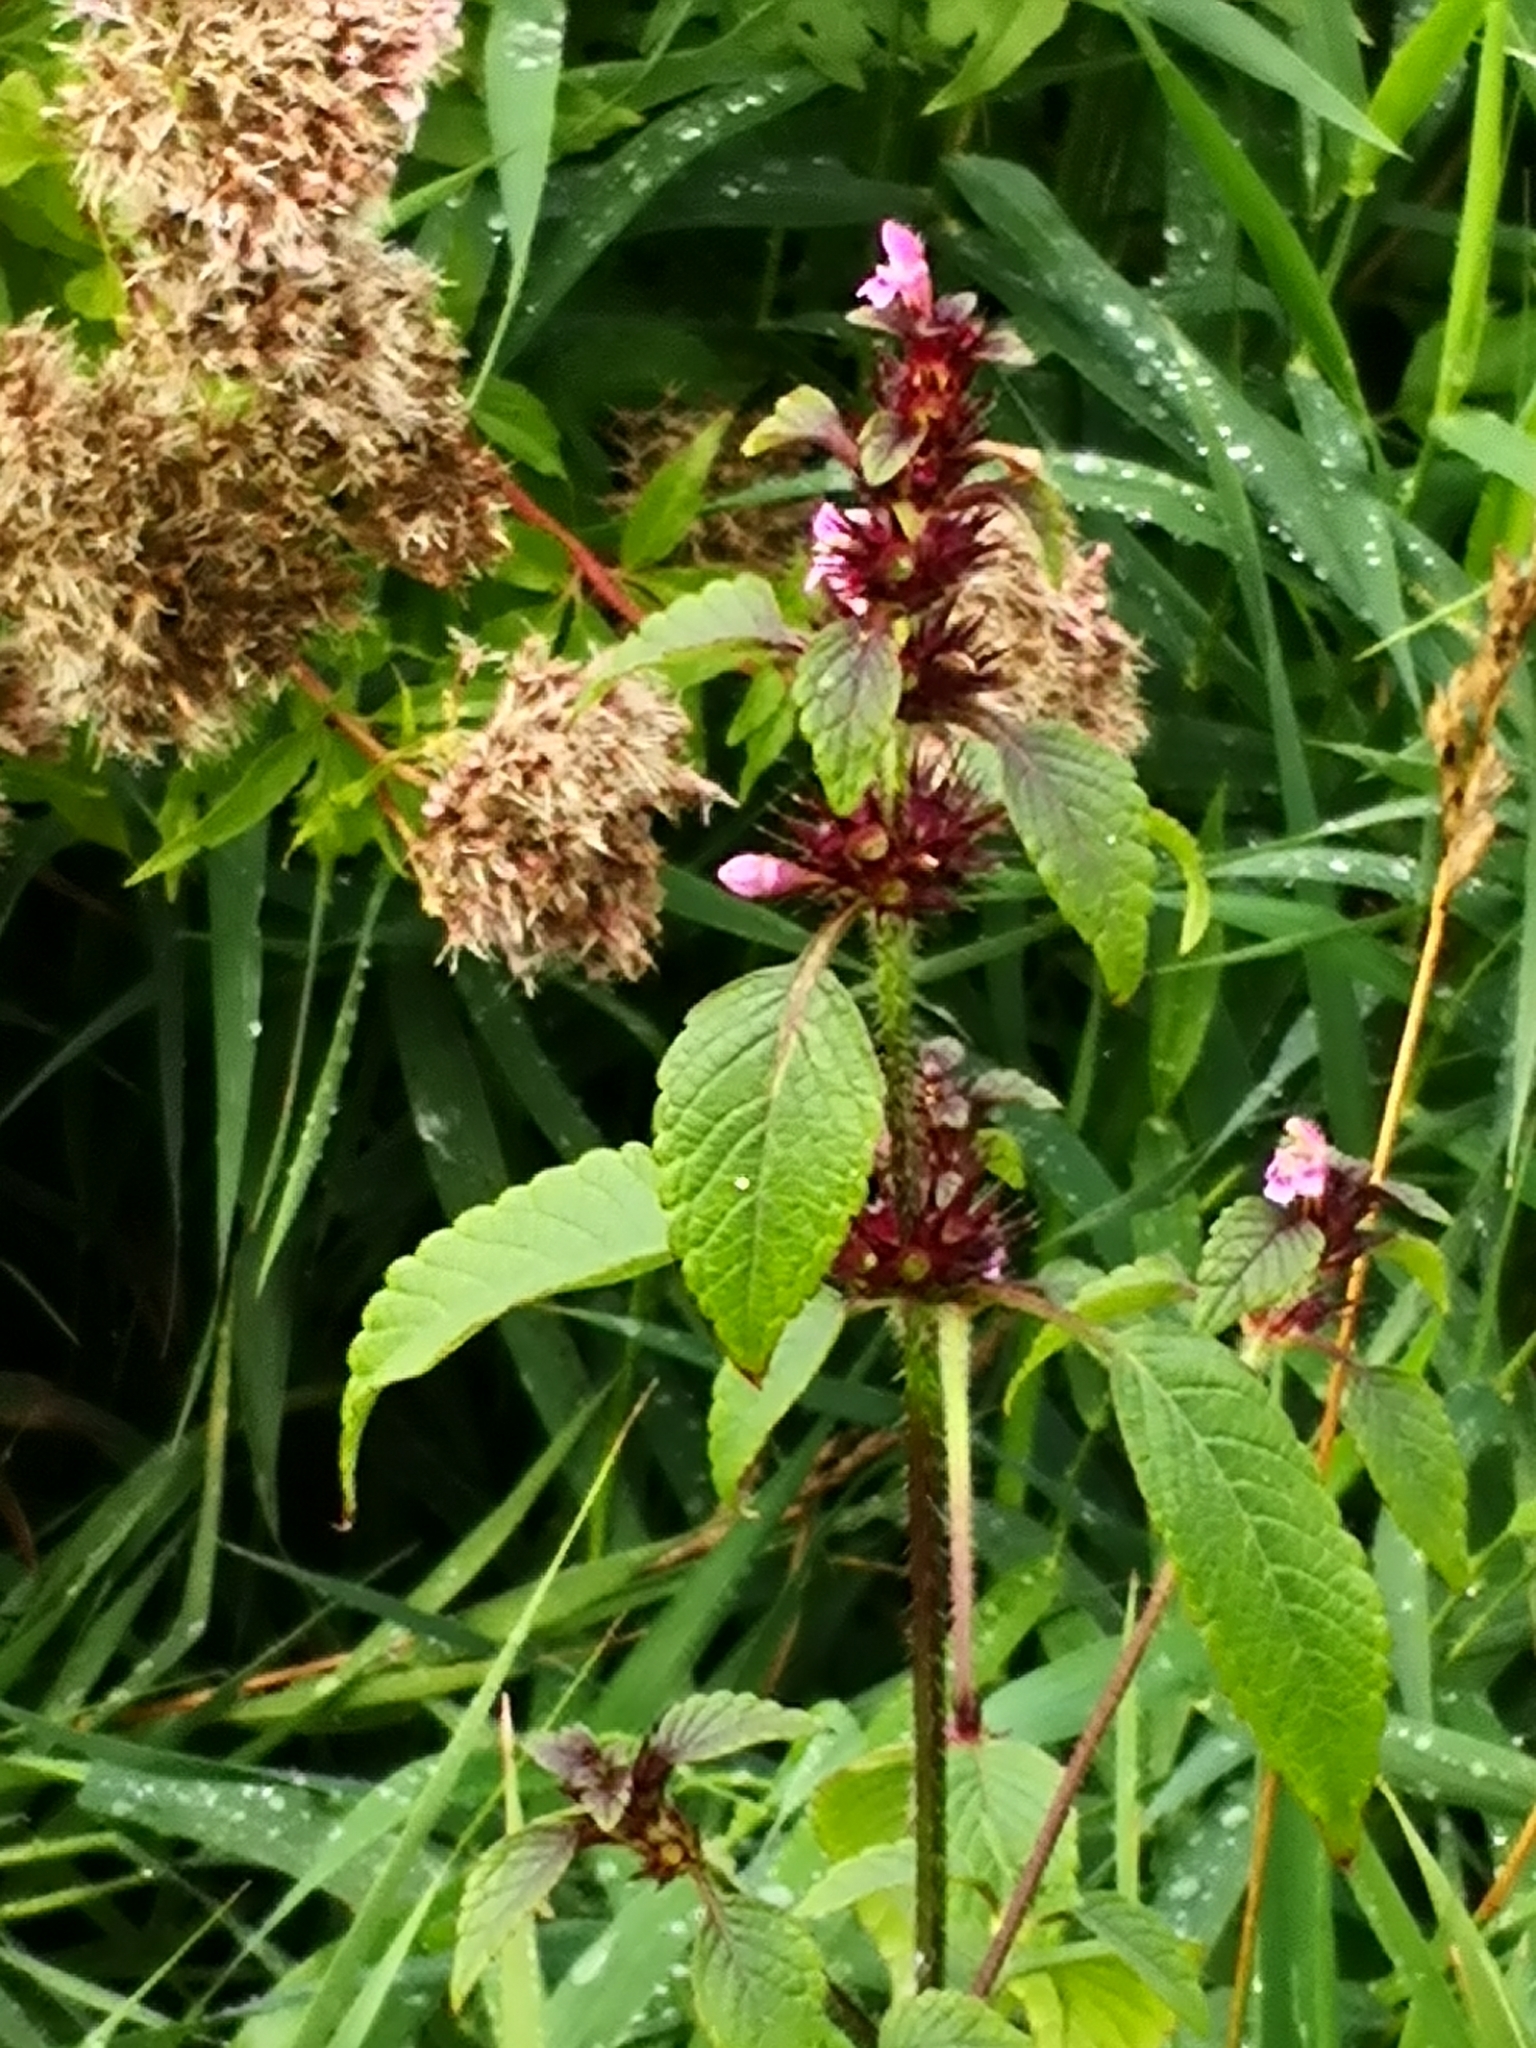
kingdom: Plantae
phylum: Tracheophyta
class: Magnoliopsida
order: Lamiales
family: Lamiaceae
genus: Galeopsis
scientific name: Galeopsis tetrahit
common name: Common hemp-nettle
